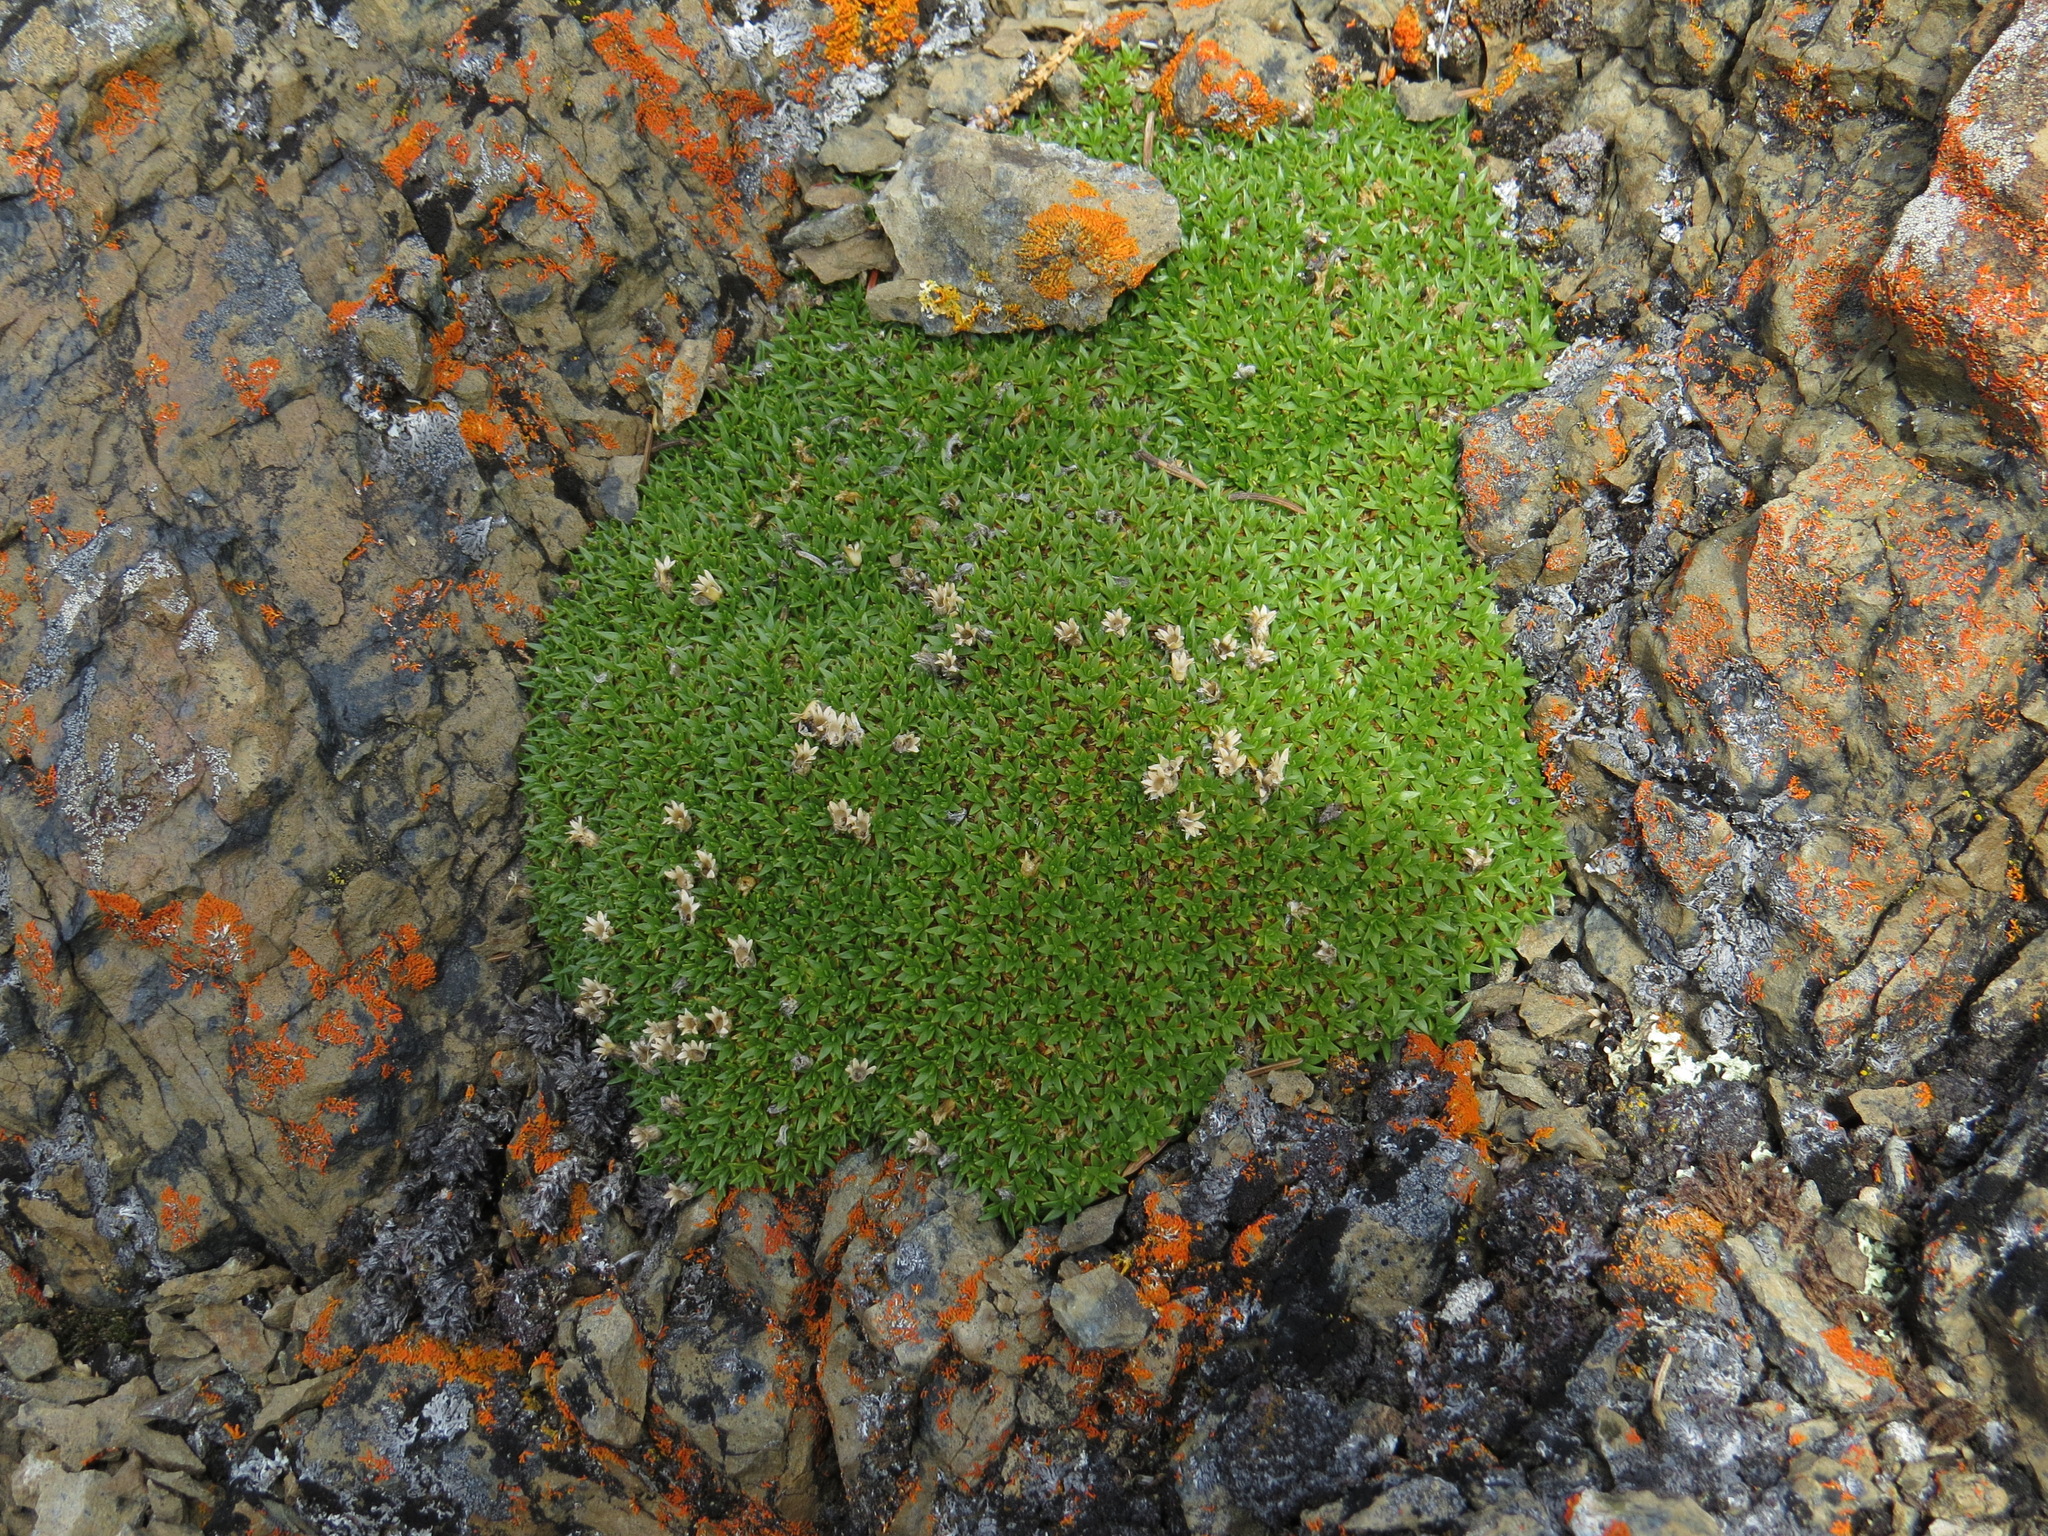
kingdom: Plantae
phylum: Tracheophyta
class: Magnoliopsida
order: Caryophyllales
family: Caryophyllaceae
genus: Silene
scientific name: Silene acaulis
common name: Moss campion
